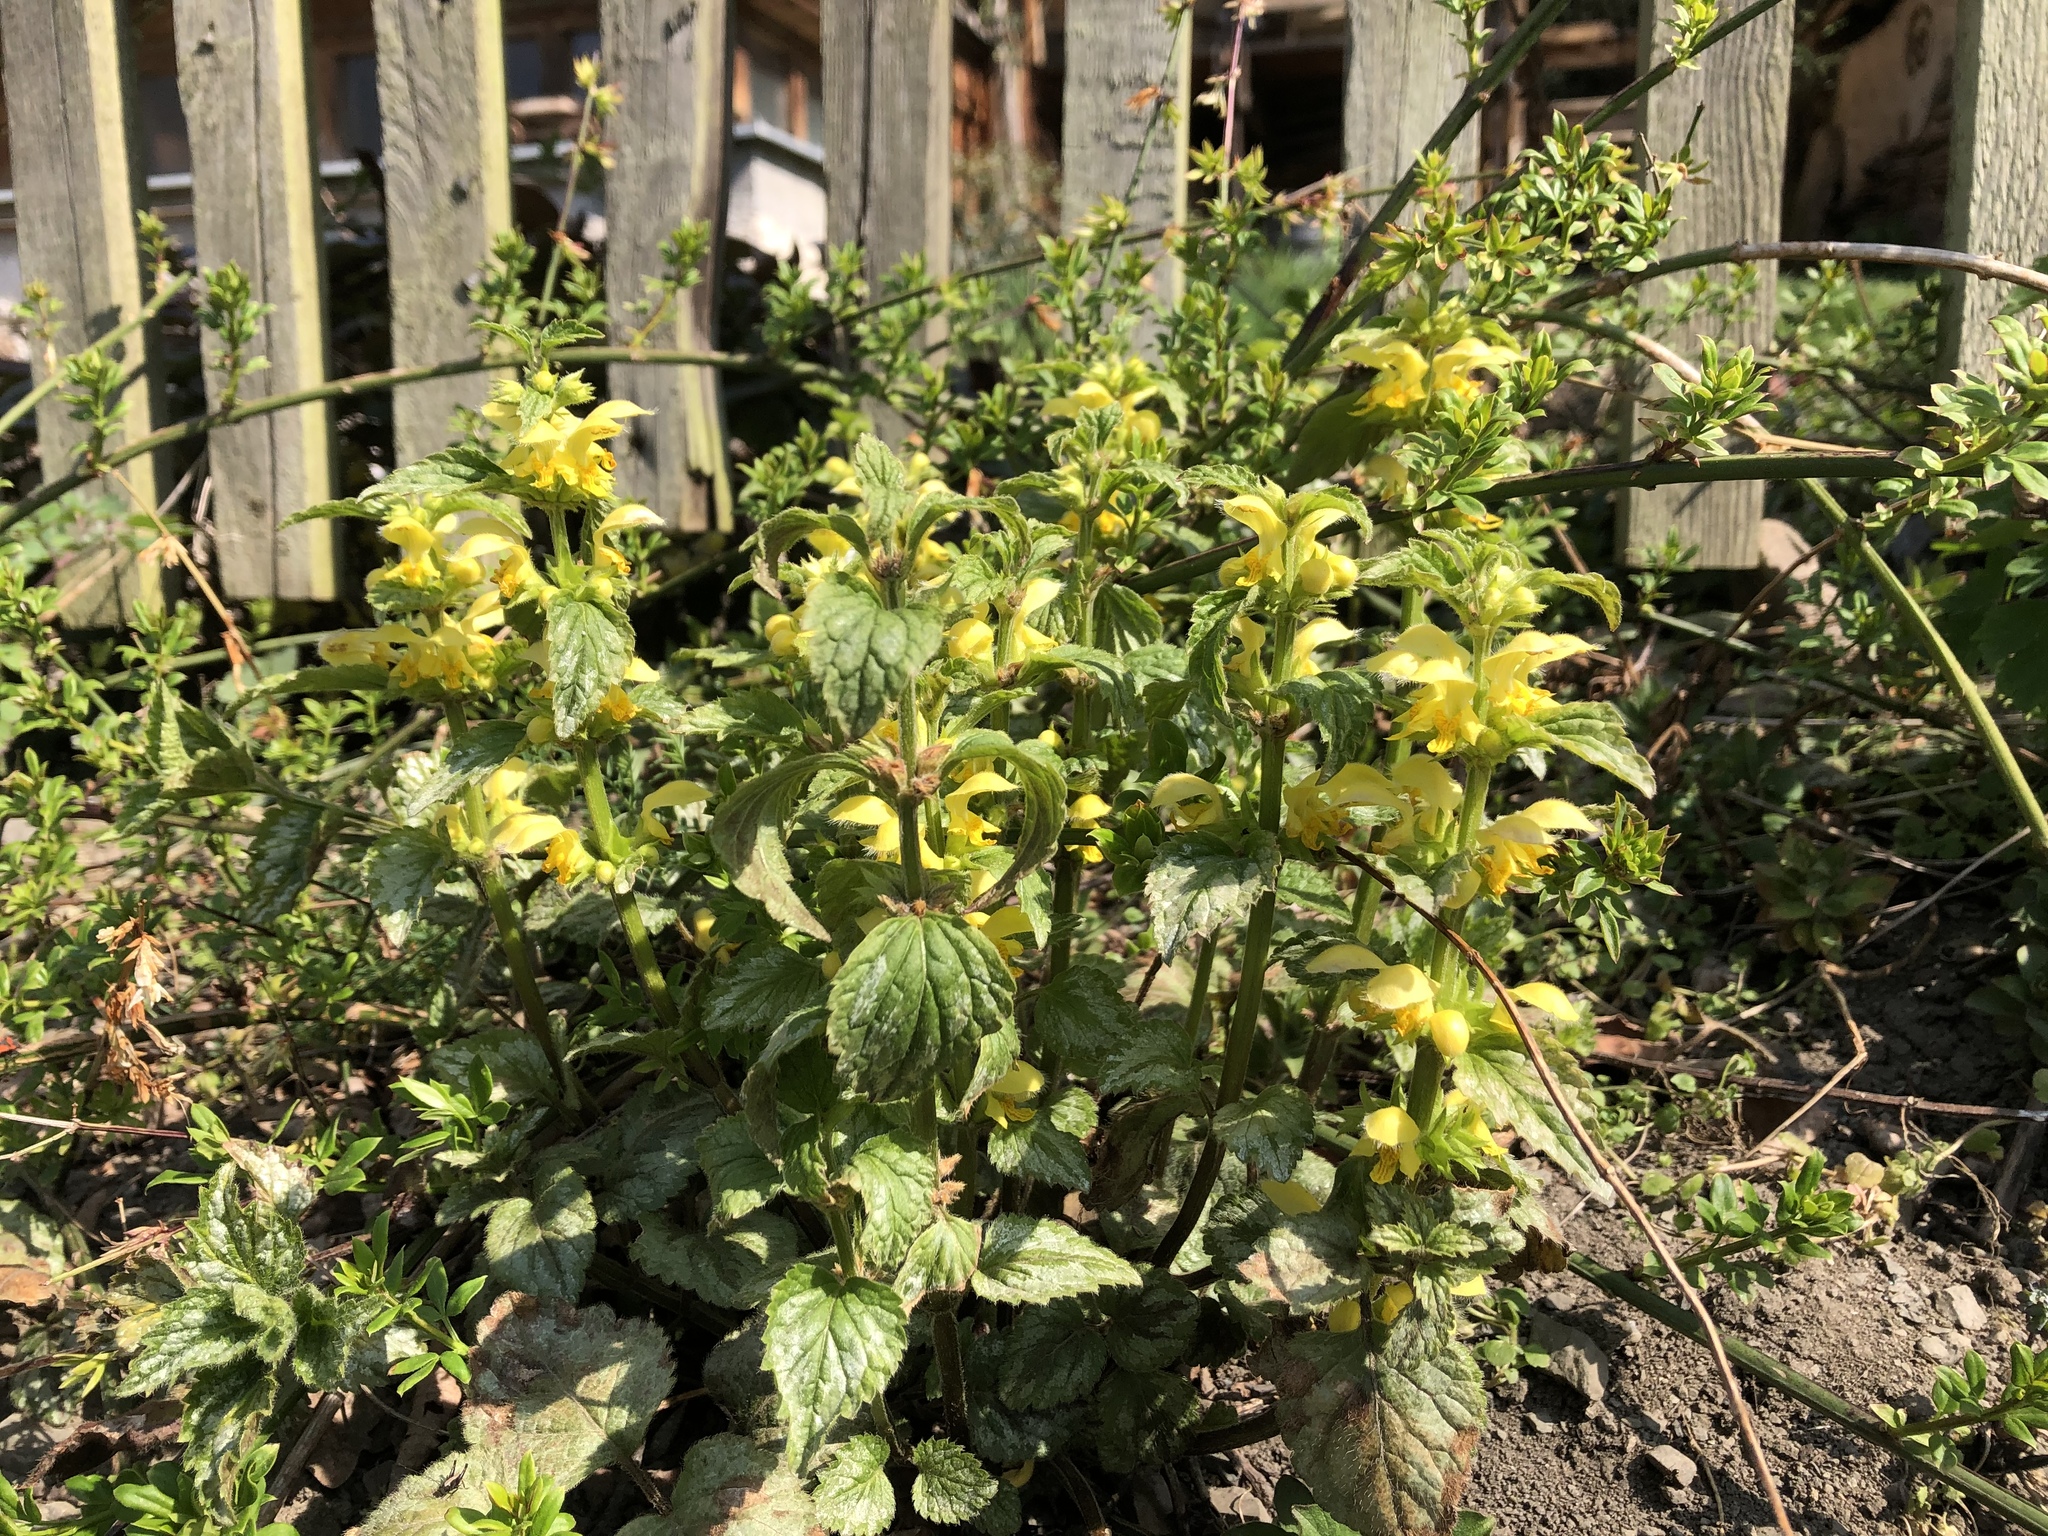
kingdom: Plantae
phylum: Tracheophyta
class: Magnoliopsida
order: Lamiales
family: Lamiaceae
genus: Lamium
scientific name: Lamium galeobdolon
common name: Yellow archangel
